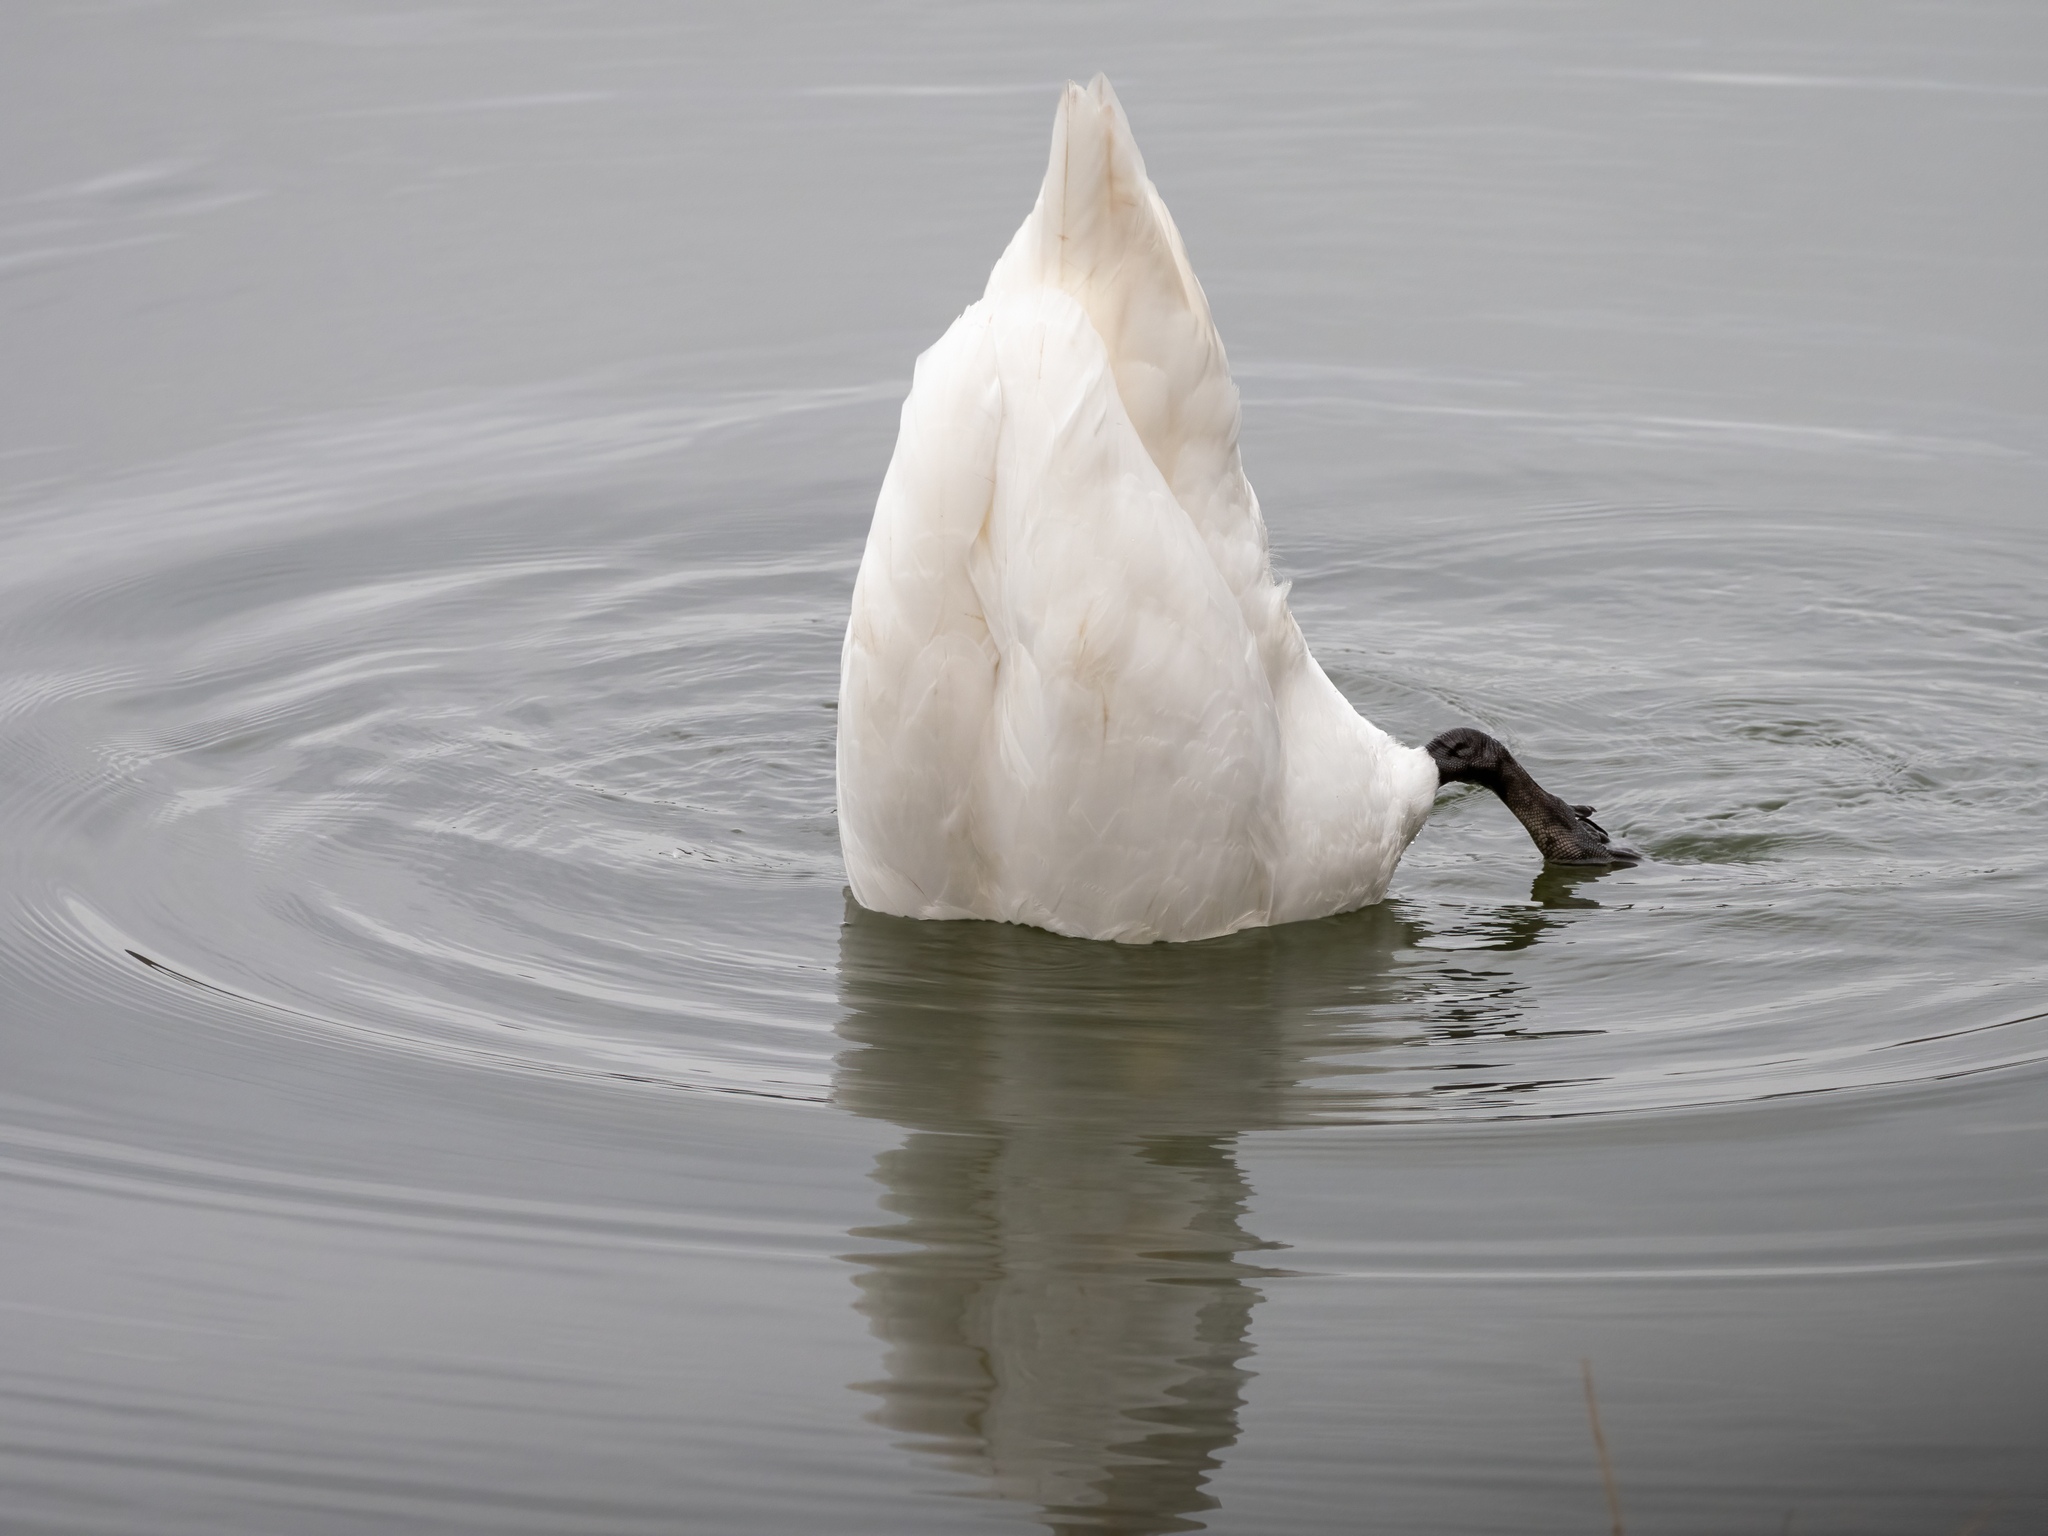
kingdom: Animalia
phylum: Chordata
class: Aves
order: Anseriformes
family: Anatidae
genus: Cygnus
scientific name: Cygnus olor
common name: Mute swan
